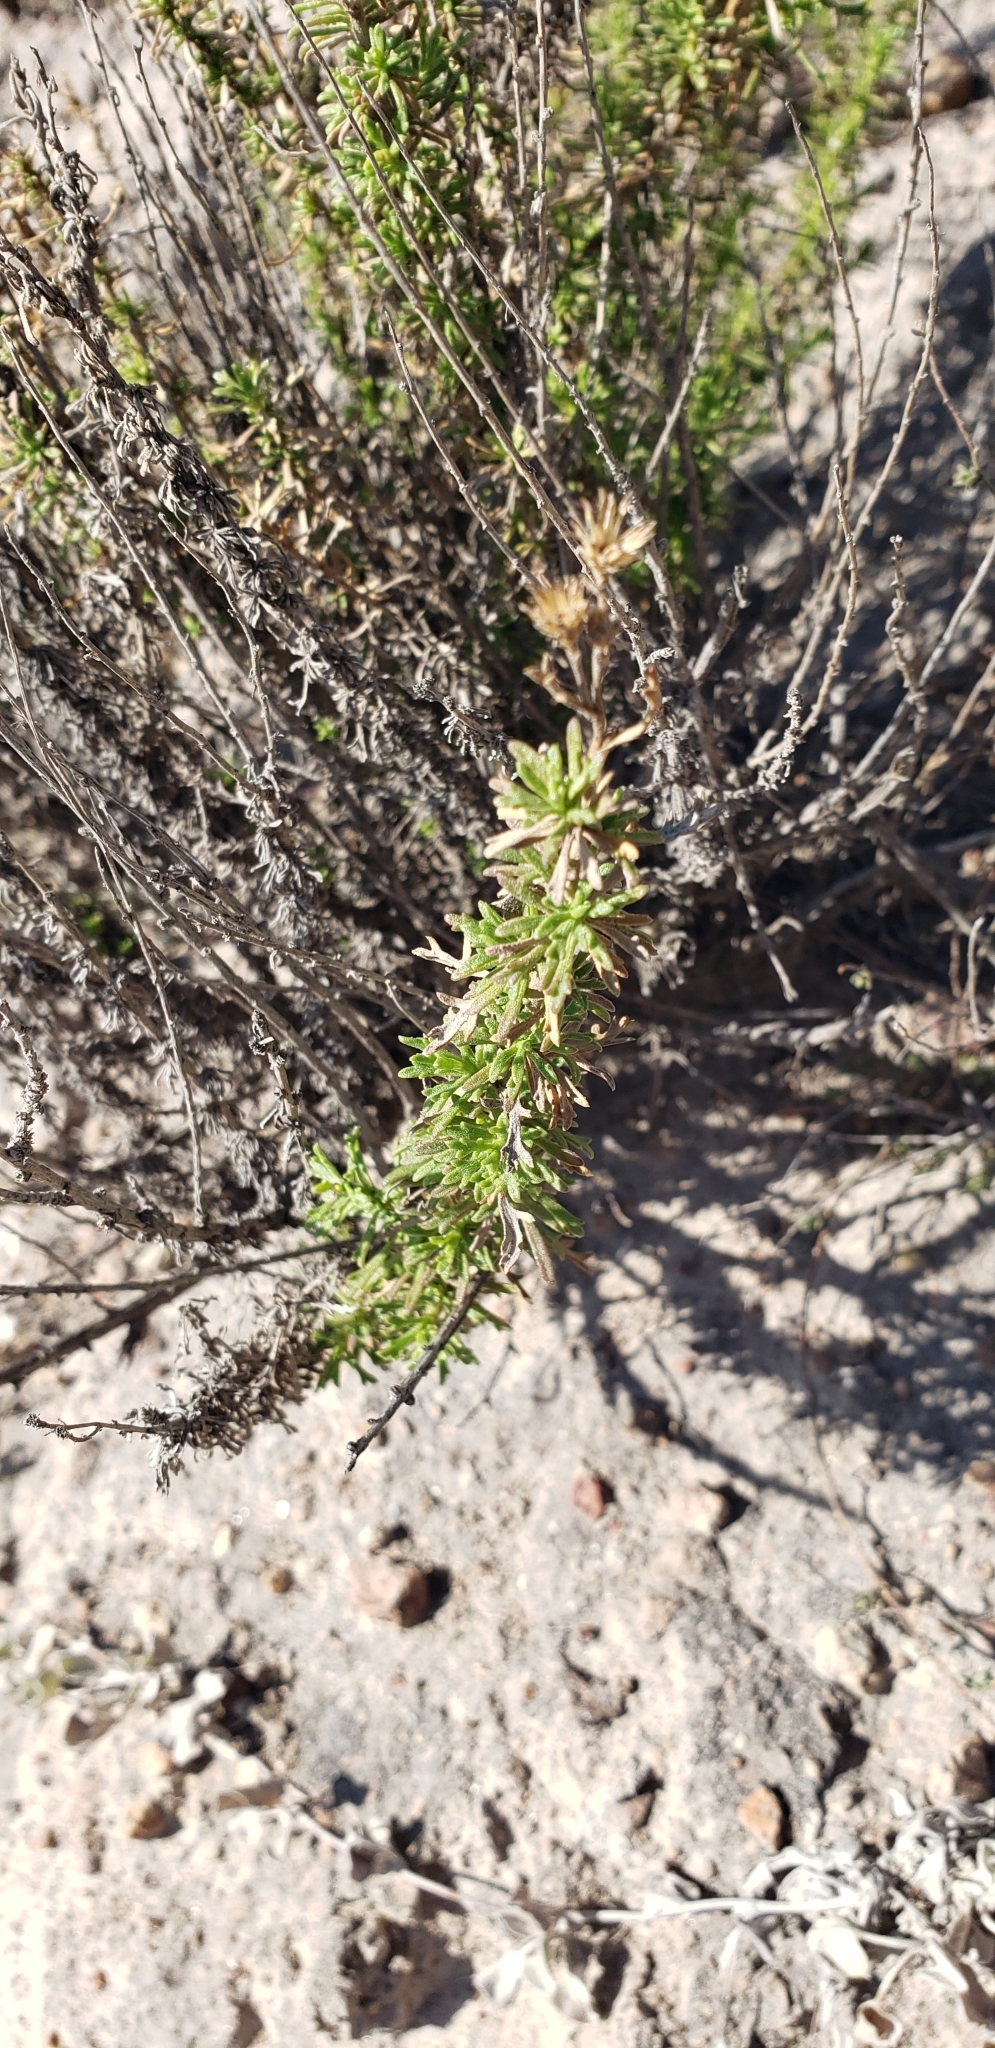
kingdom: Plantae
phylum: Tracheophyta
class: Magnoliopsida
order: Asterales
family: Asteraceae
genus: Baccharis
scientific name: Baccharis pteronioides
